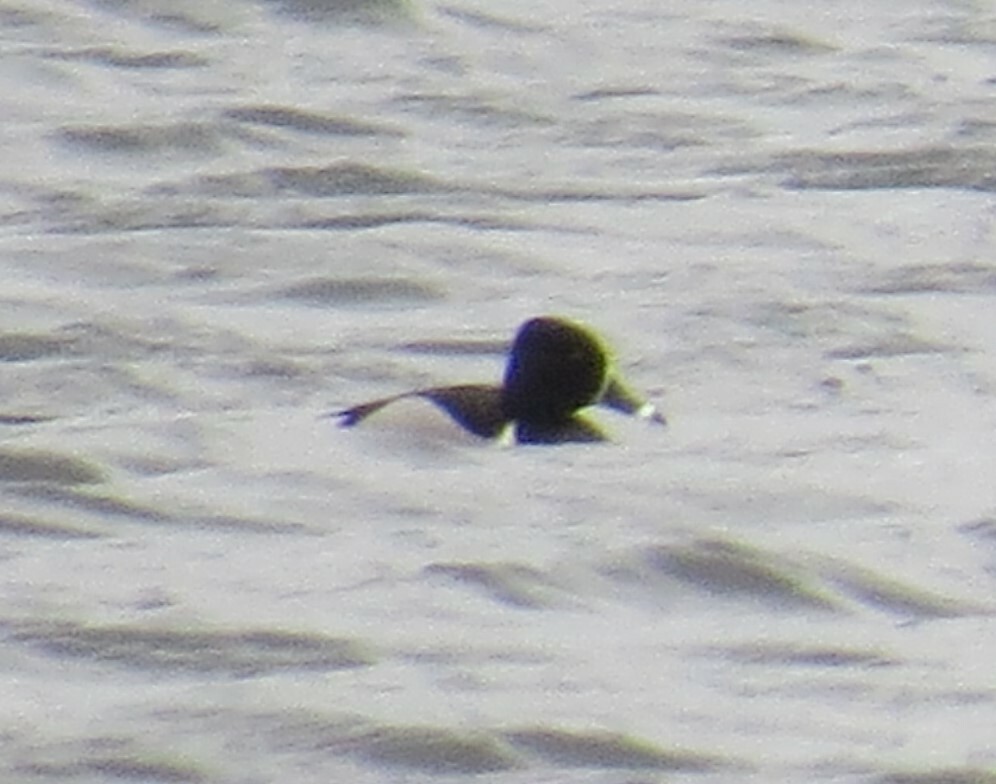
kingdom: Animalia
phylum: Chordata
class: Aves
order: Anseriformes
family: Anatidae
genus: Aythya
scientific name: Aythya collaris
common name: Ring-necked duck
